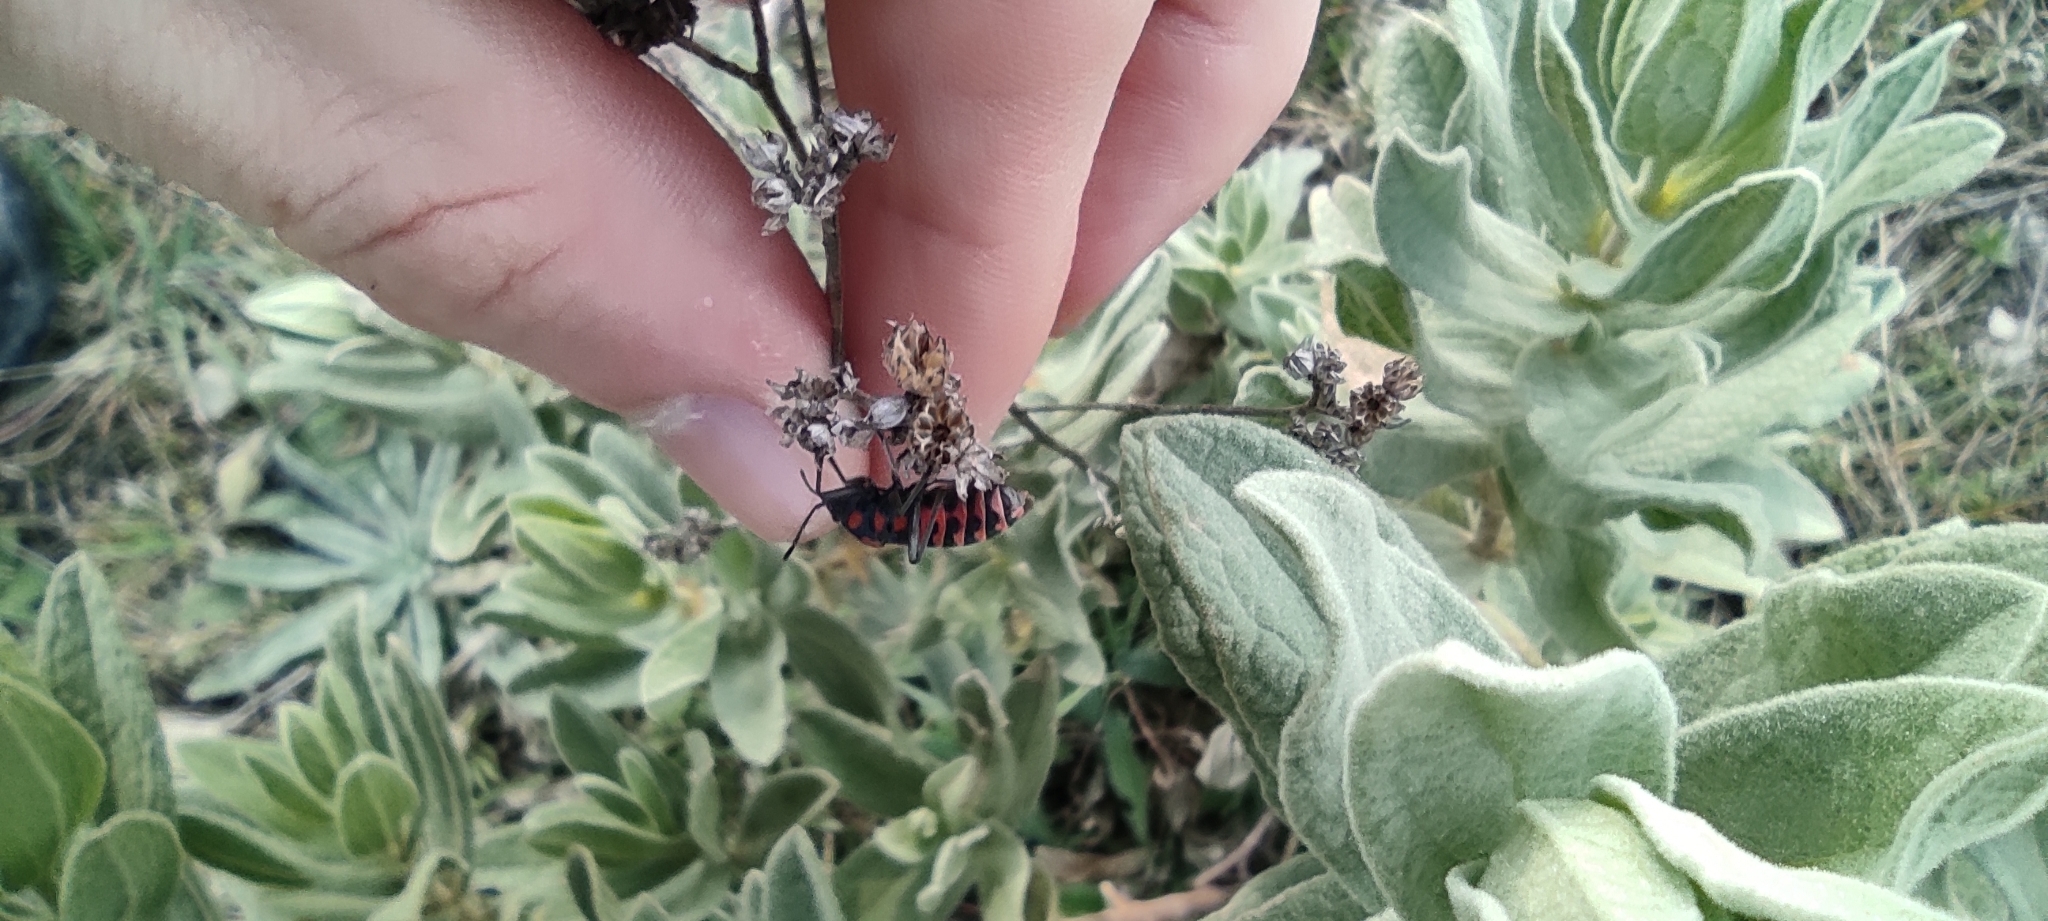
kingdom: Animalia
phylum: Arthropoda
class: Insecta
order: Hemiptera
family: Lygaeidae
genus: Spilostethus
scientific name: Spilostethus saxatilis
